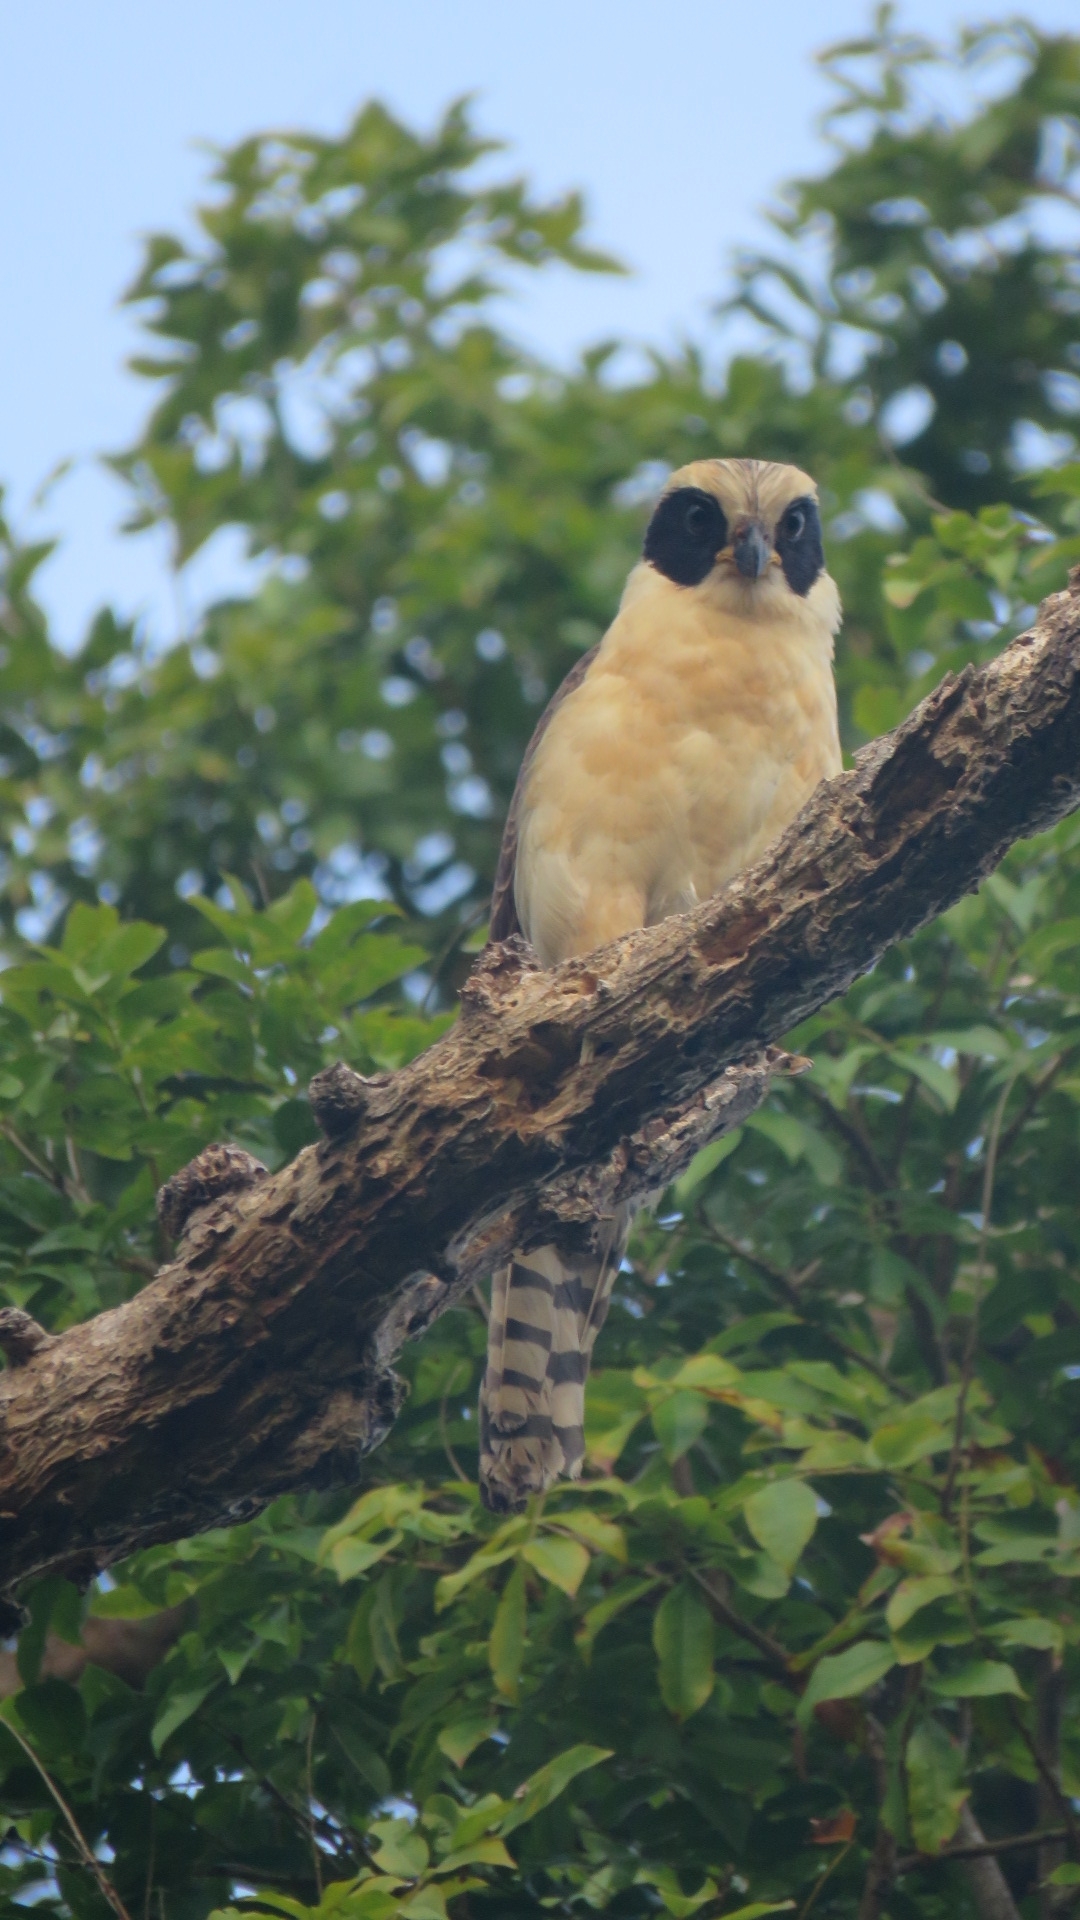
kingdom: Animalia
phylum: Chordata
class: Aves
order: Falconiformes
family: Falconidae
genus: Herpetotheres
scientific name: Herpetotheres cachinnans
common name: Laughing falcon
